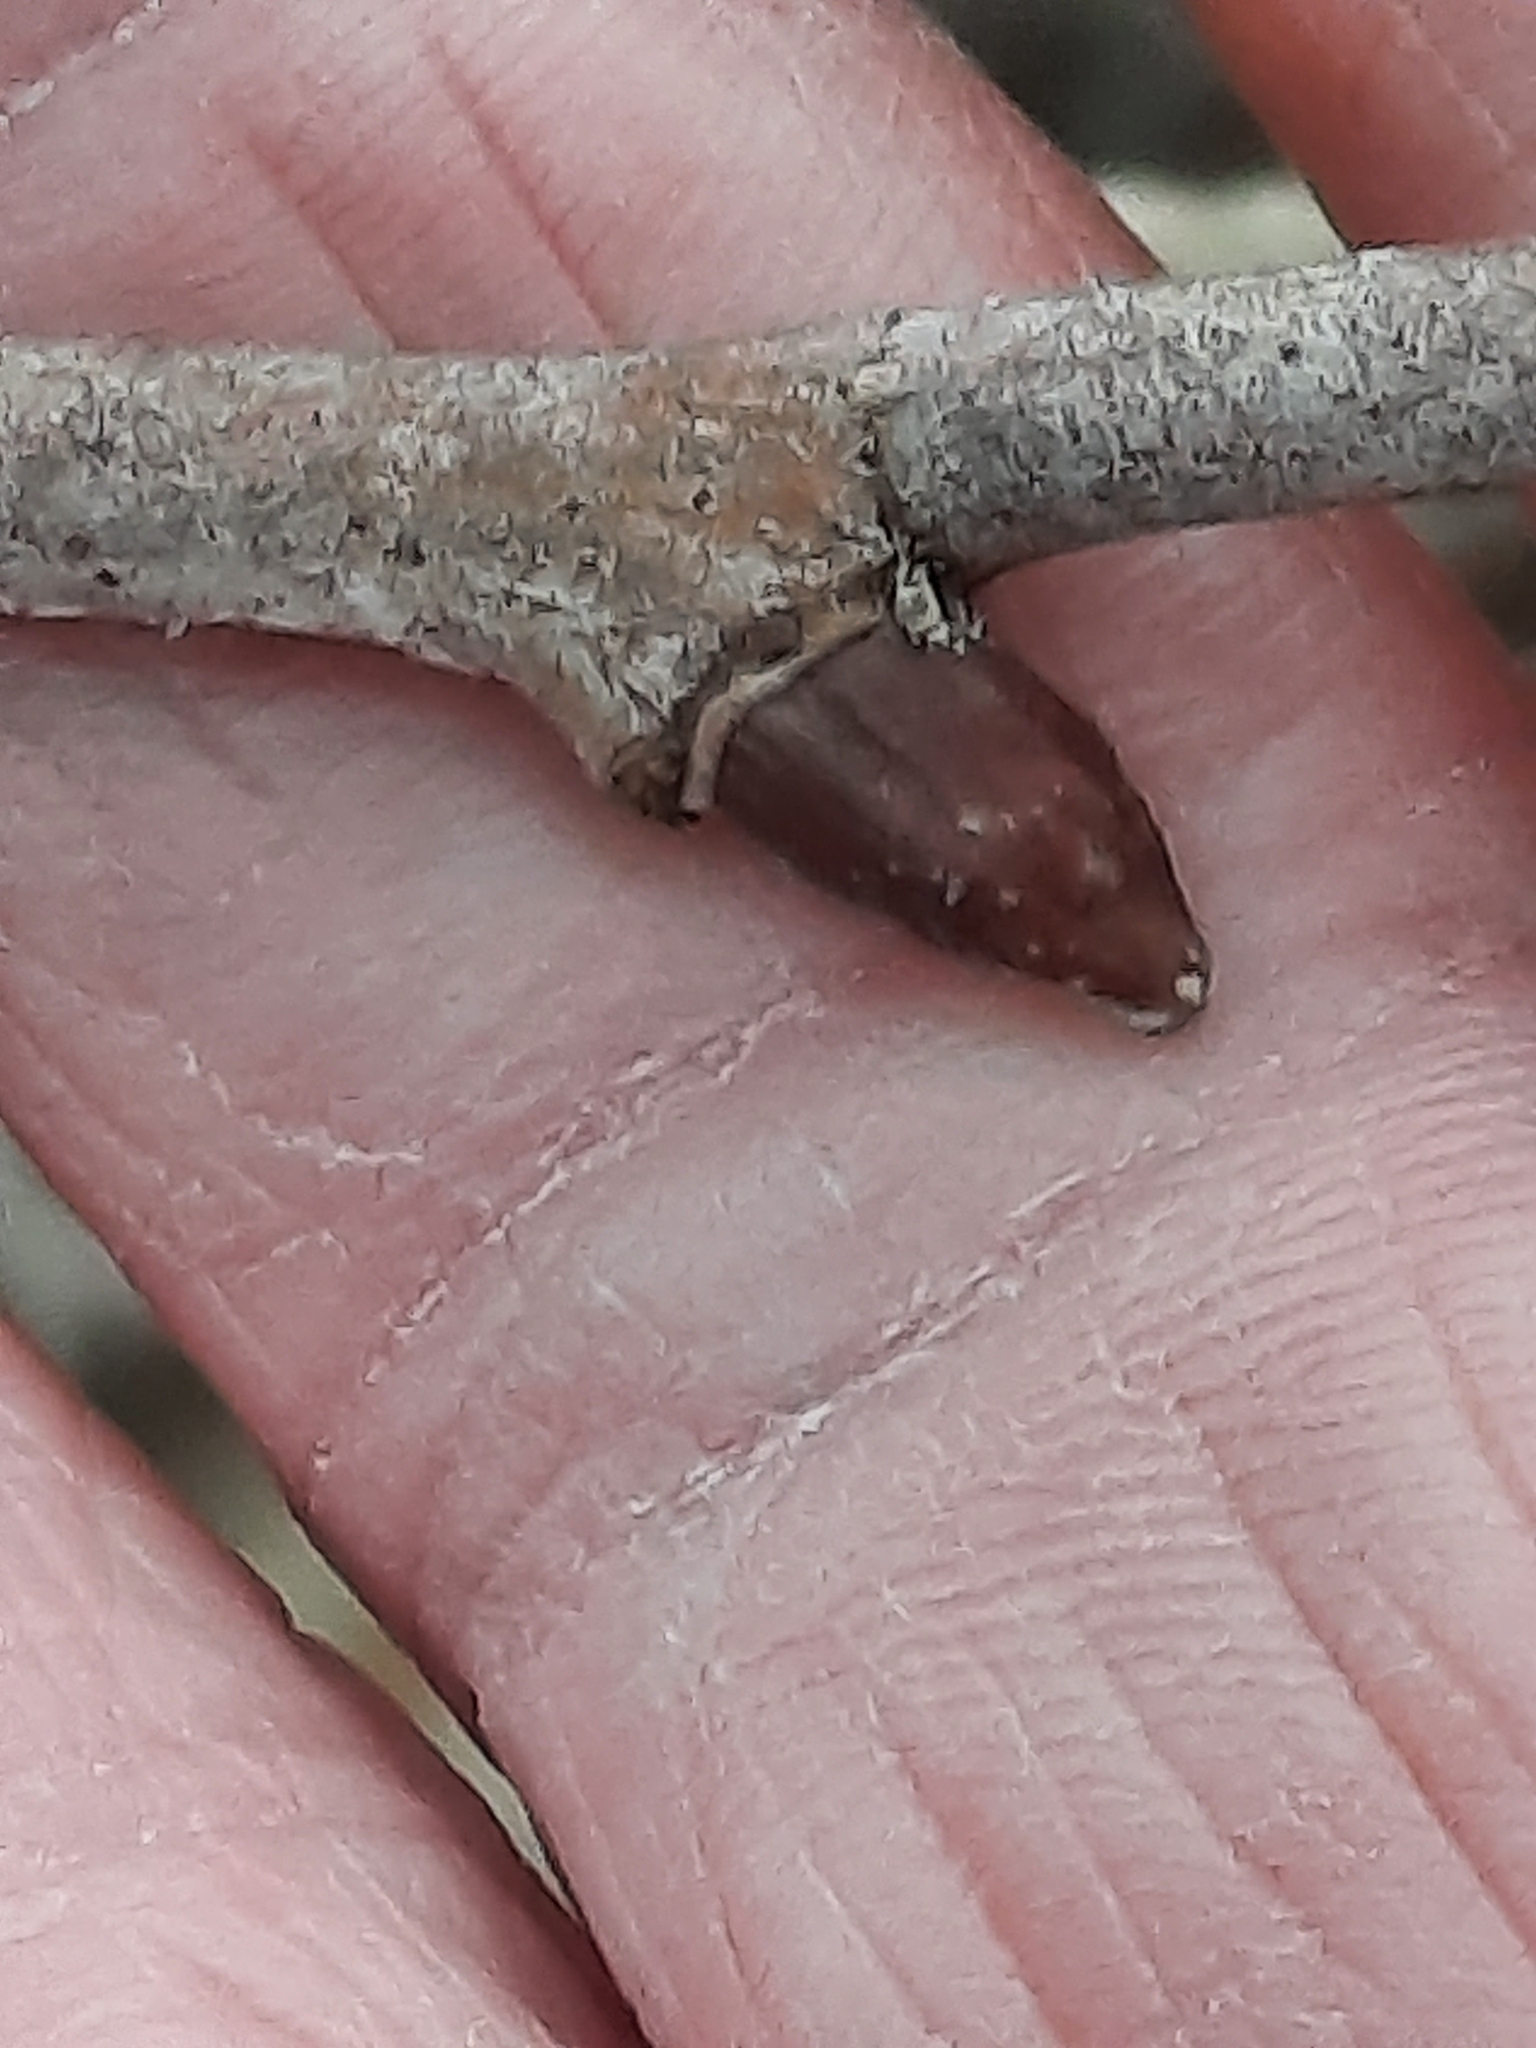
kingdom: Plantae
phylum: Tracheophyta
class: Magnoliopsida
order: Proteales
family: Platanaceae
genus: Platanus
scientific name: Platanus occidentalis
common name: American sycamore
